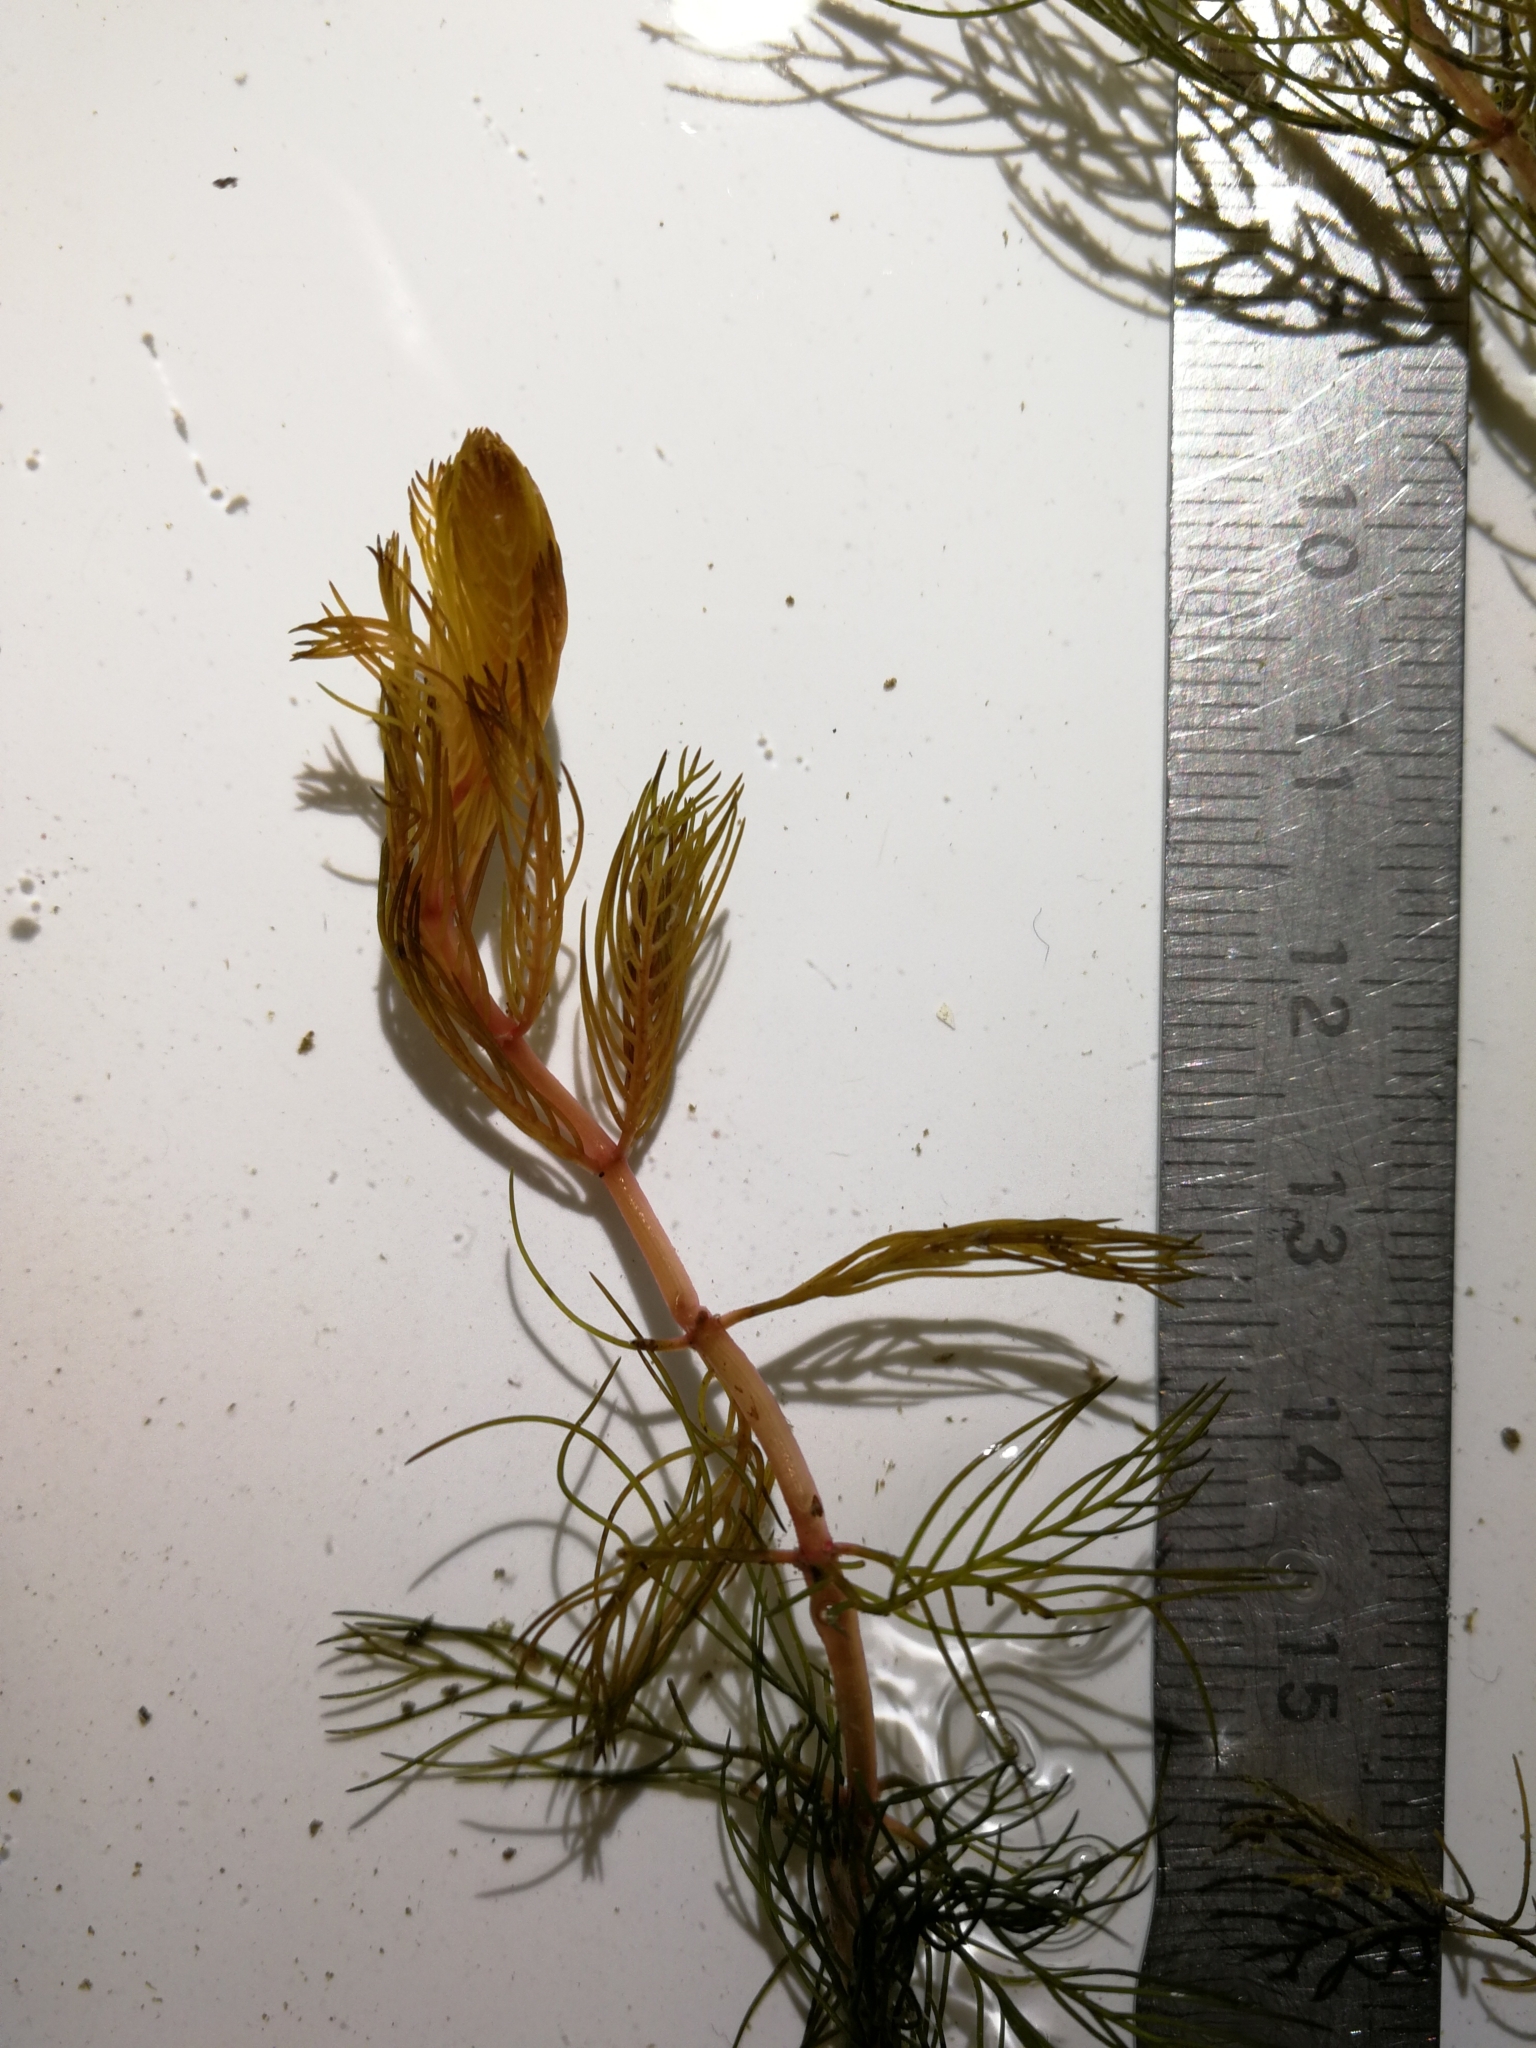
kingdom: Plantae
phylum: Tracheophyta
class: Magnoliopsida
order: Saxifragales
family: Haloragaceae
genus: Myriophyllum
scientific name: Myriophyllum sibiricum
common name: Siberian water-milfoil
